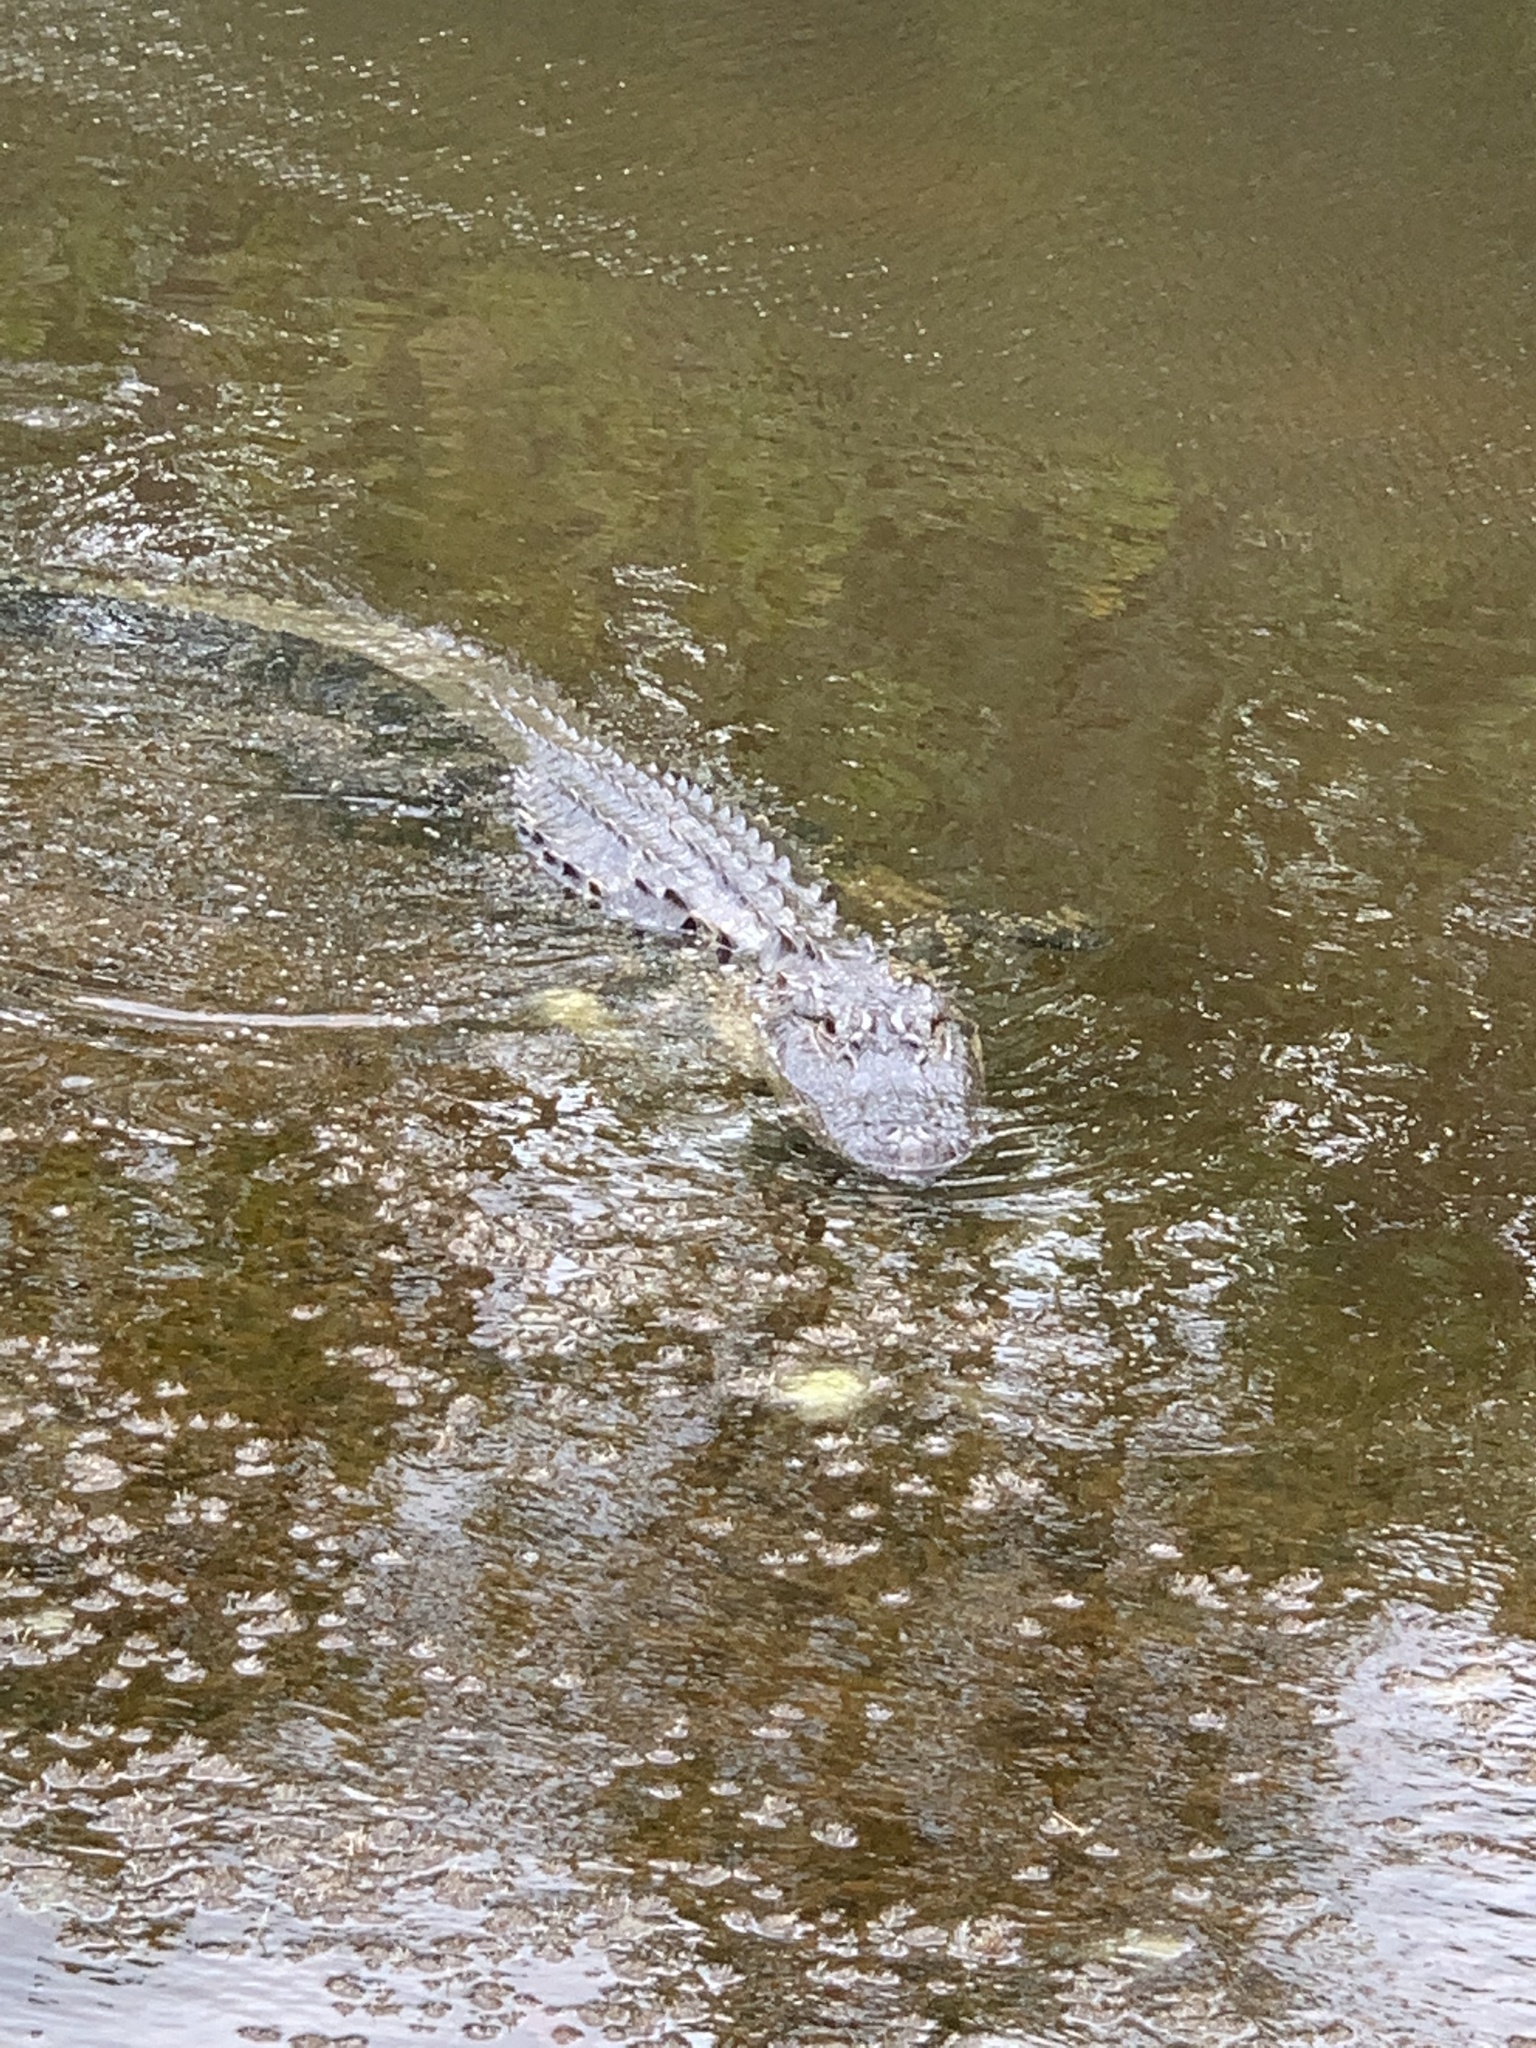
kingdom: Animalia
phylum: Chordata
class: Crocodylia
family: Alligatoridae
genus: Alligator
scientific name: Alligator mississippiensis
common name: American alligator
